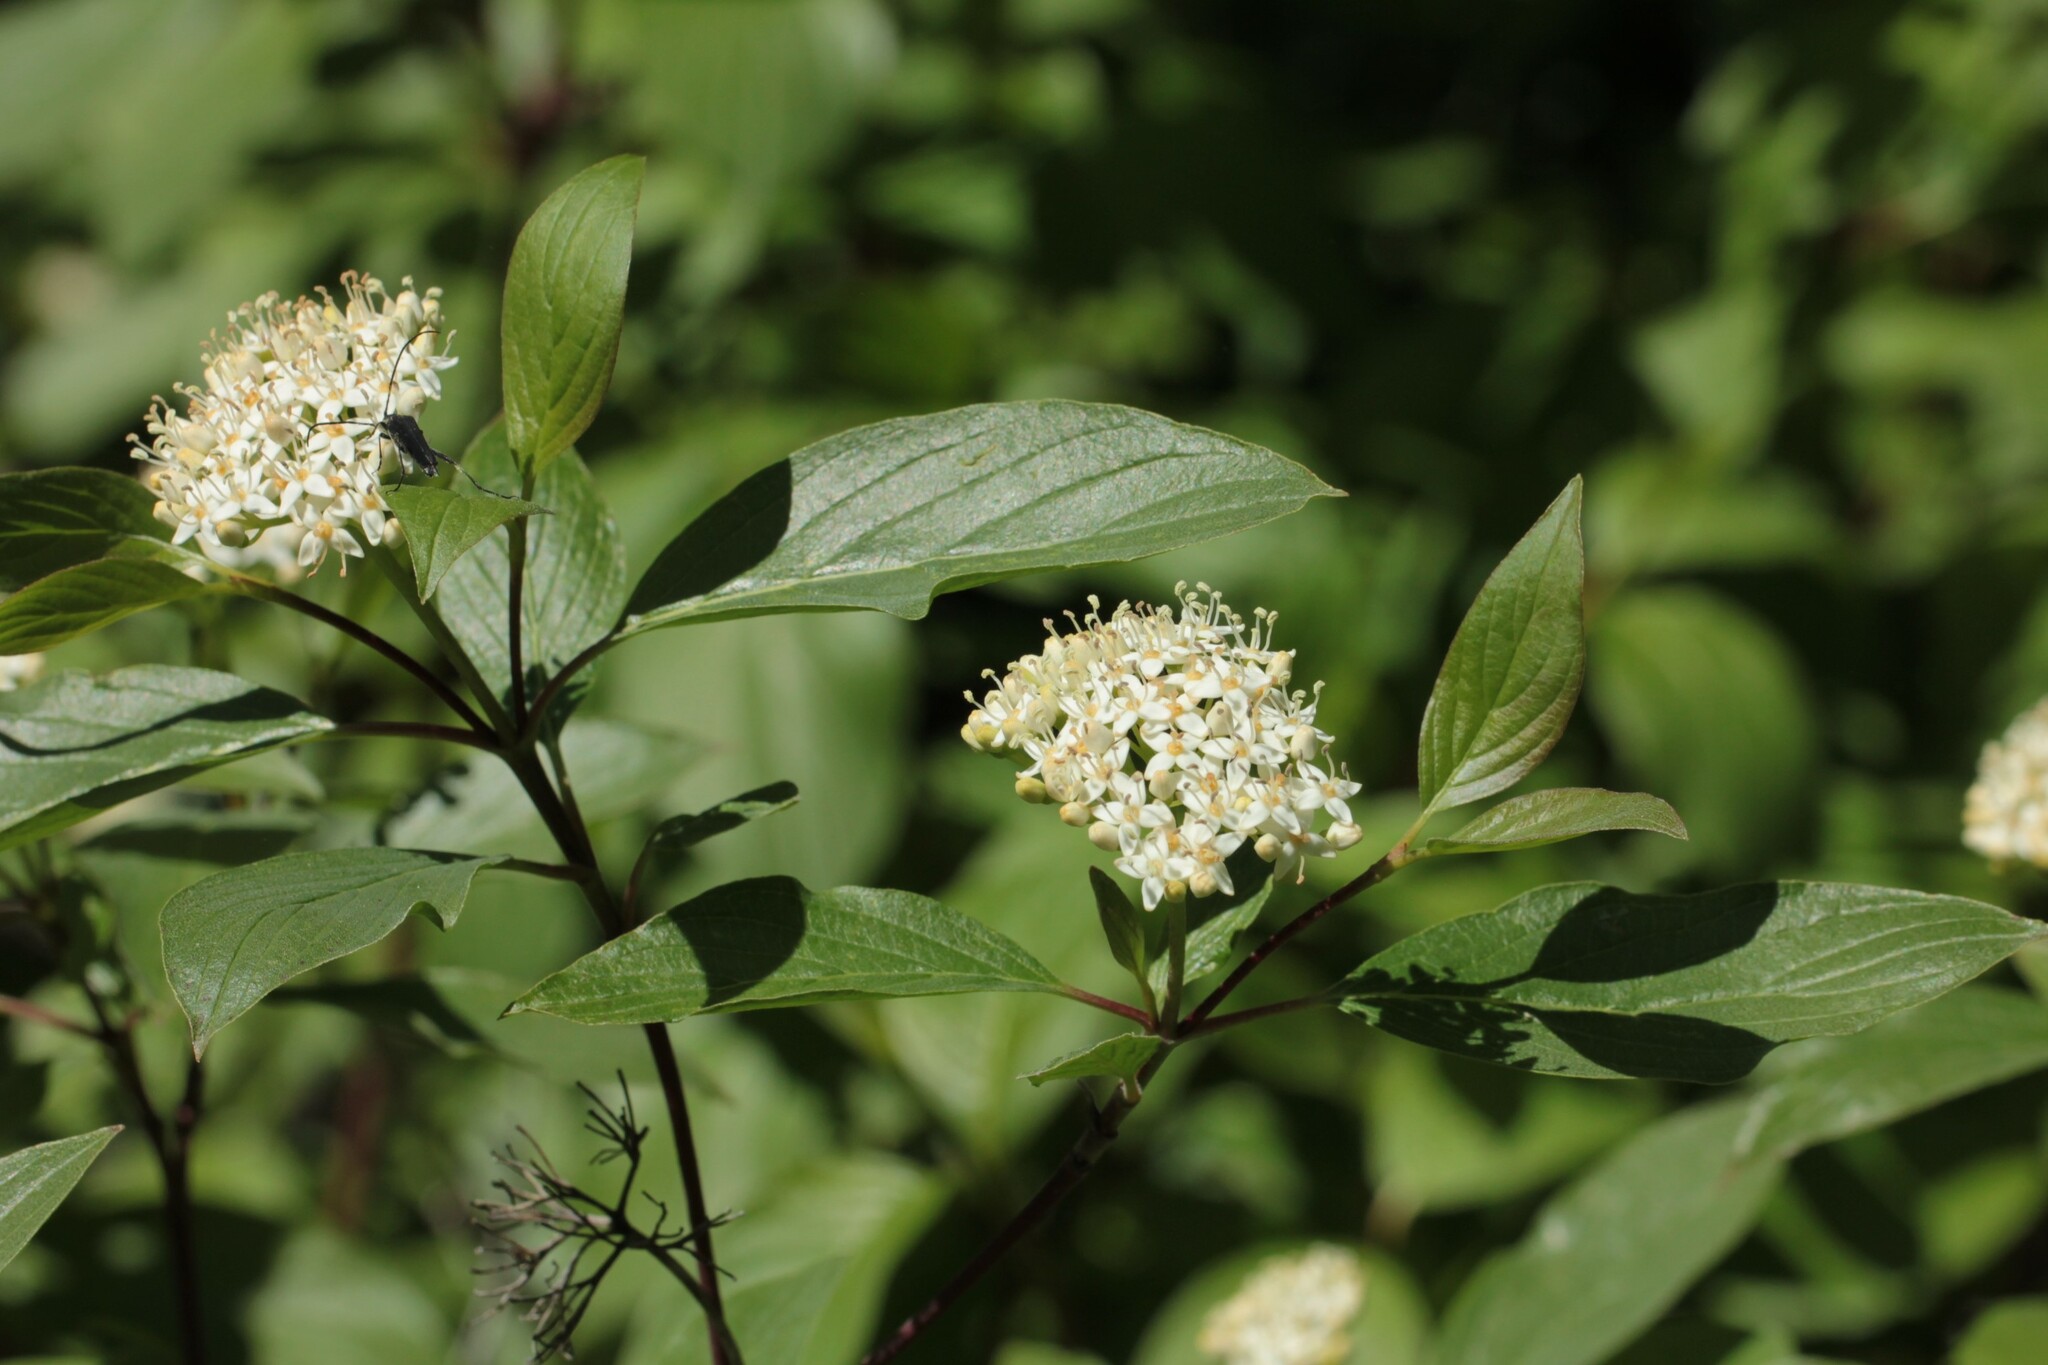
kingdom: Plantae
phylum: Tracheophyta
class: Magnoliopsida
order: Cornales
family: Cornaceae
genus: Cornus
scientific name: Cornus sericea
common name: Red-osier dogwood
